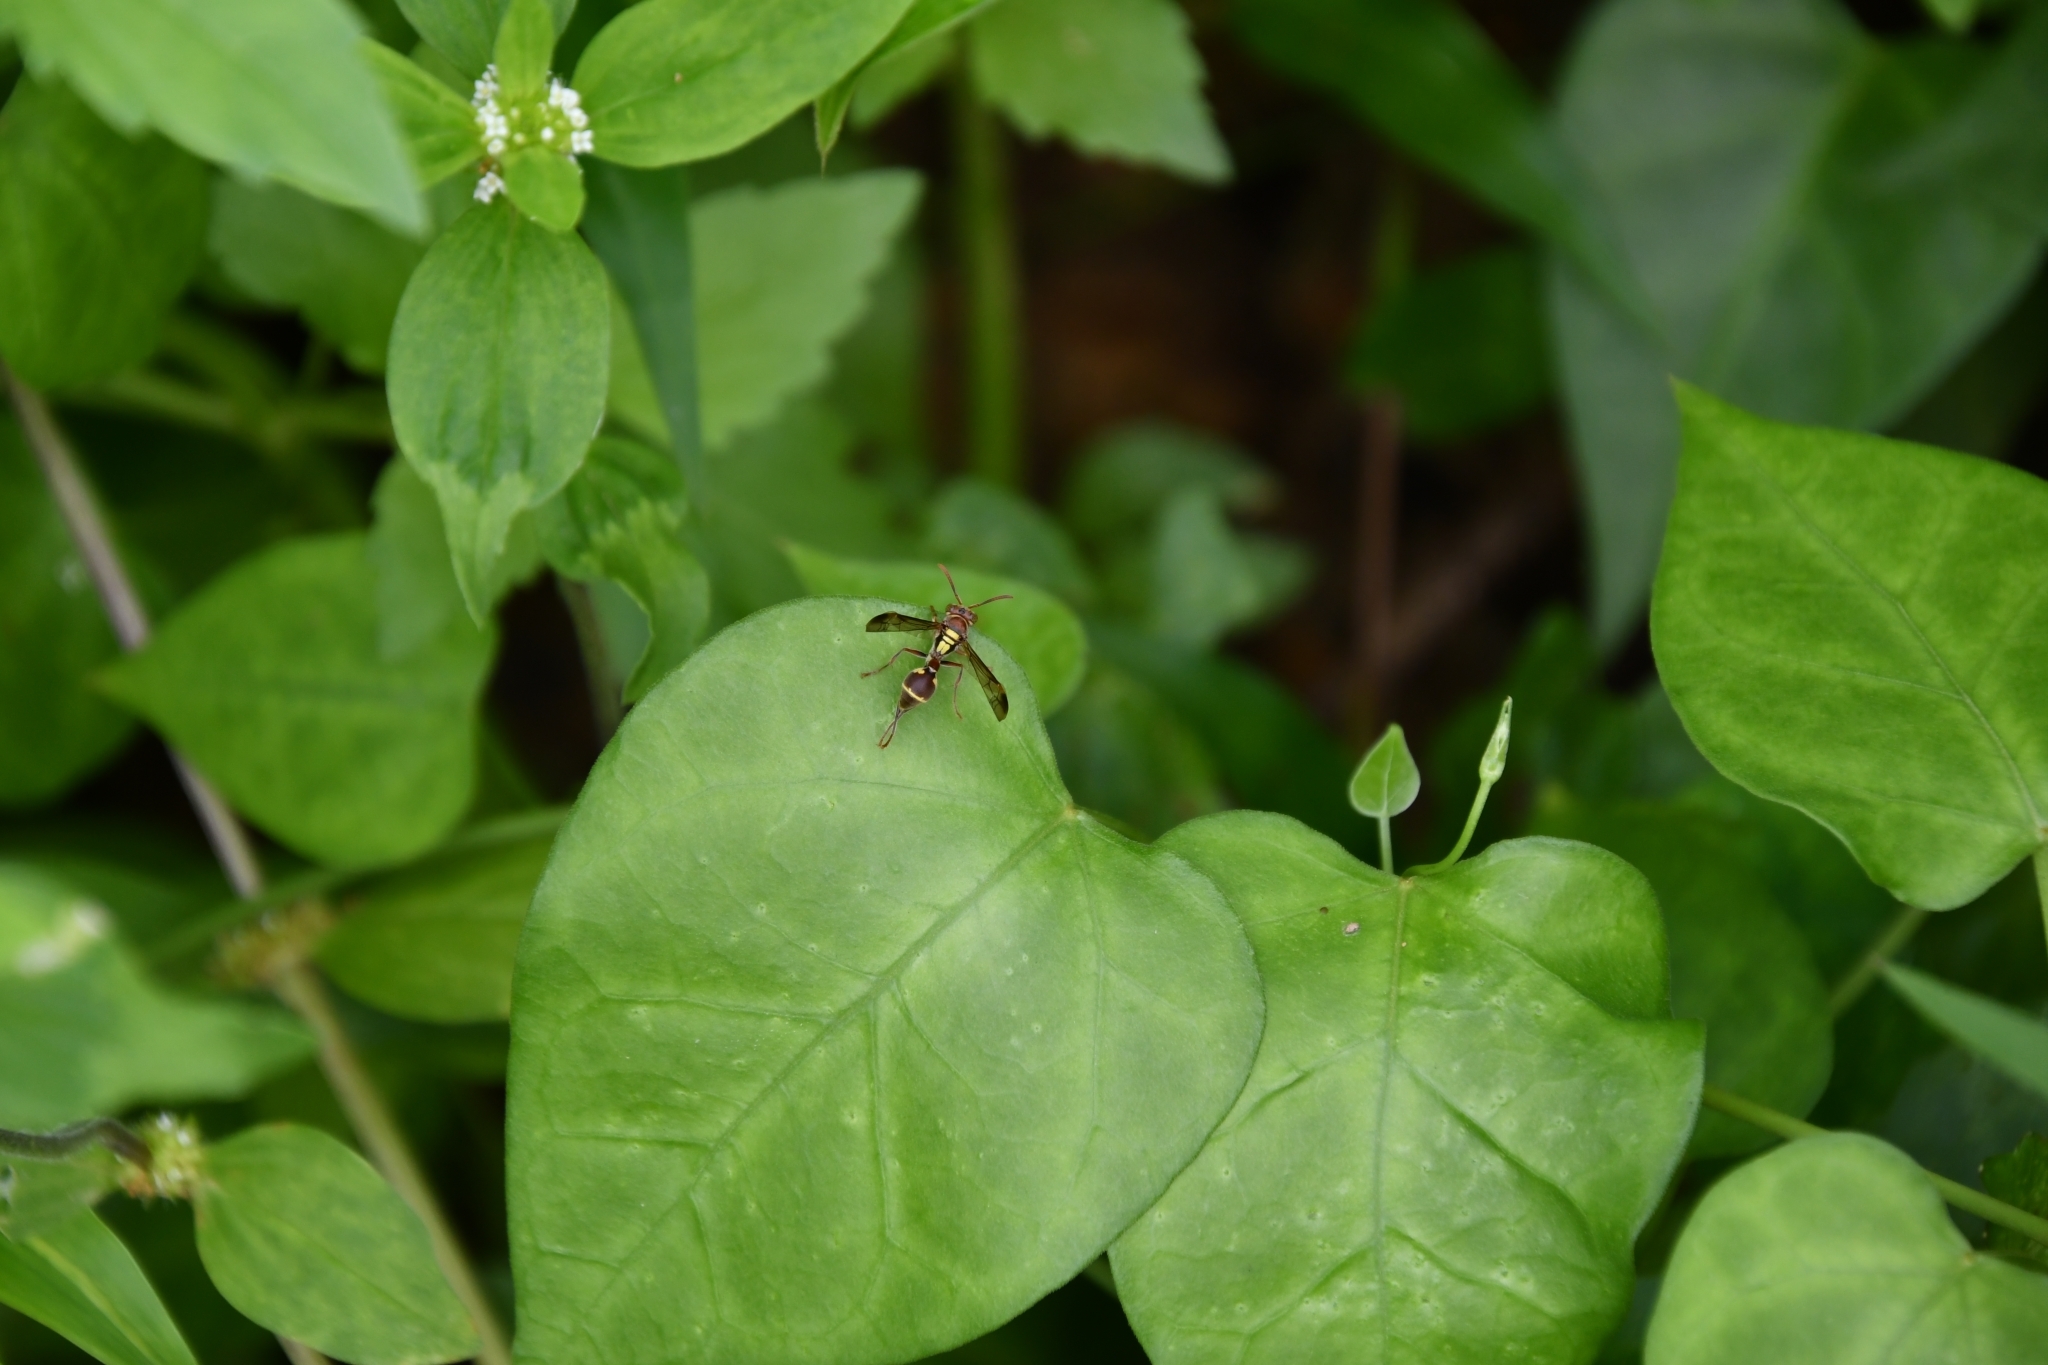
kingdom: Animalia
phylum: Arthropoda
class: Insecta
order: Hymenoptera
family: Vespidae
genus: Ropalidia
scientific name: Ropalidia stigma
